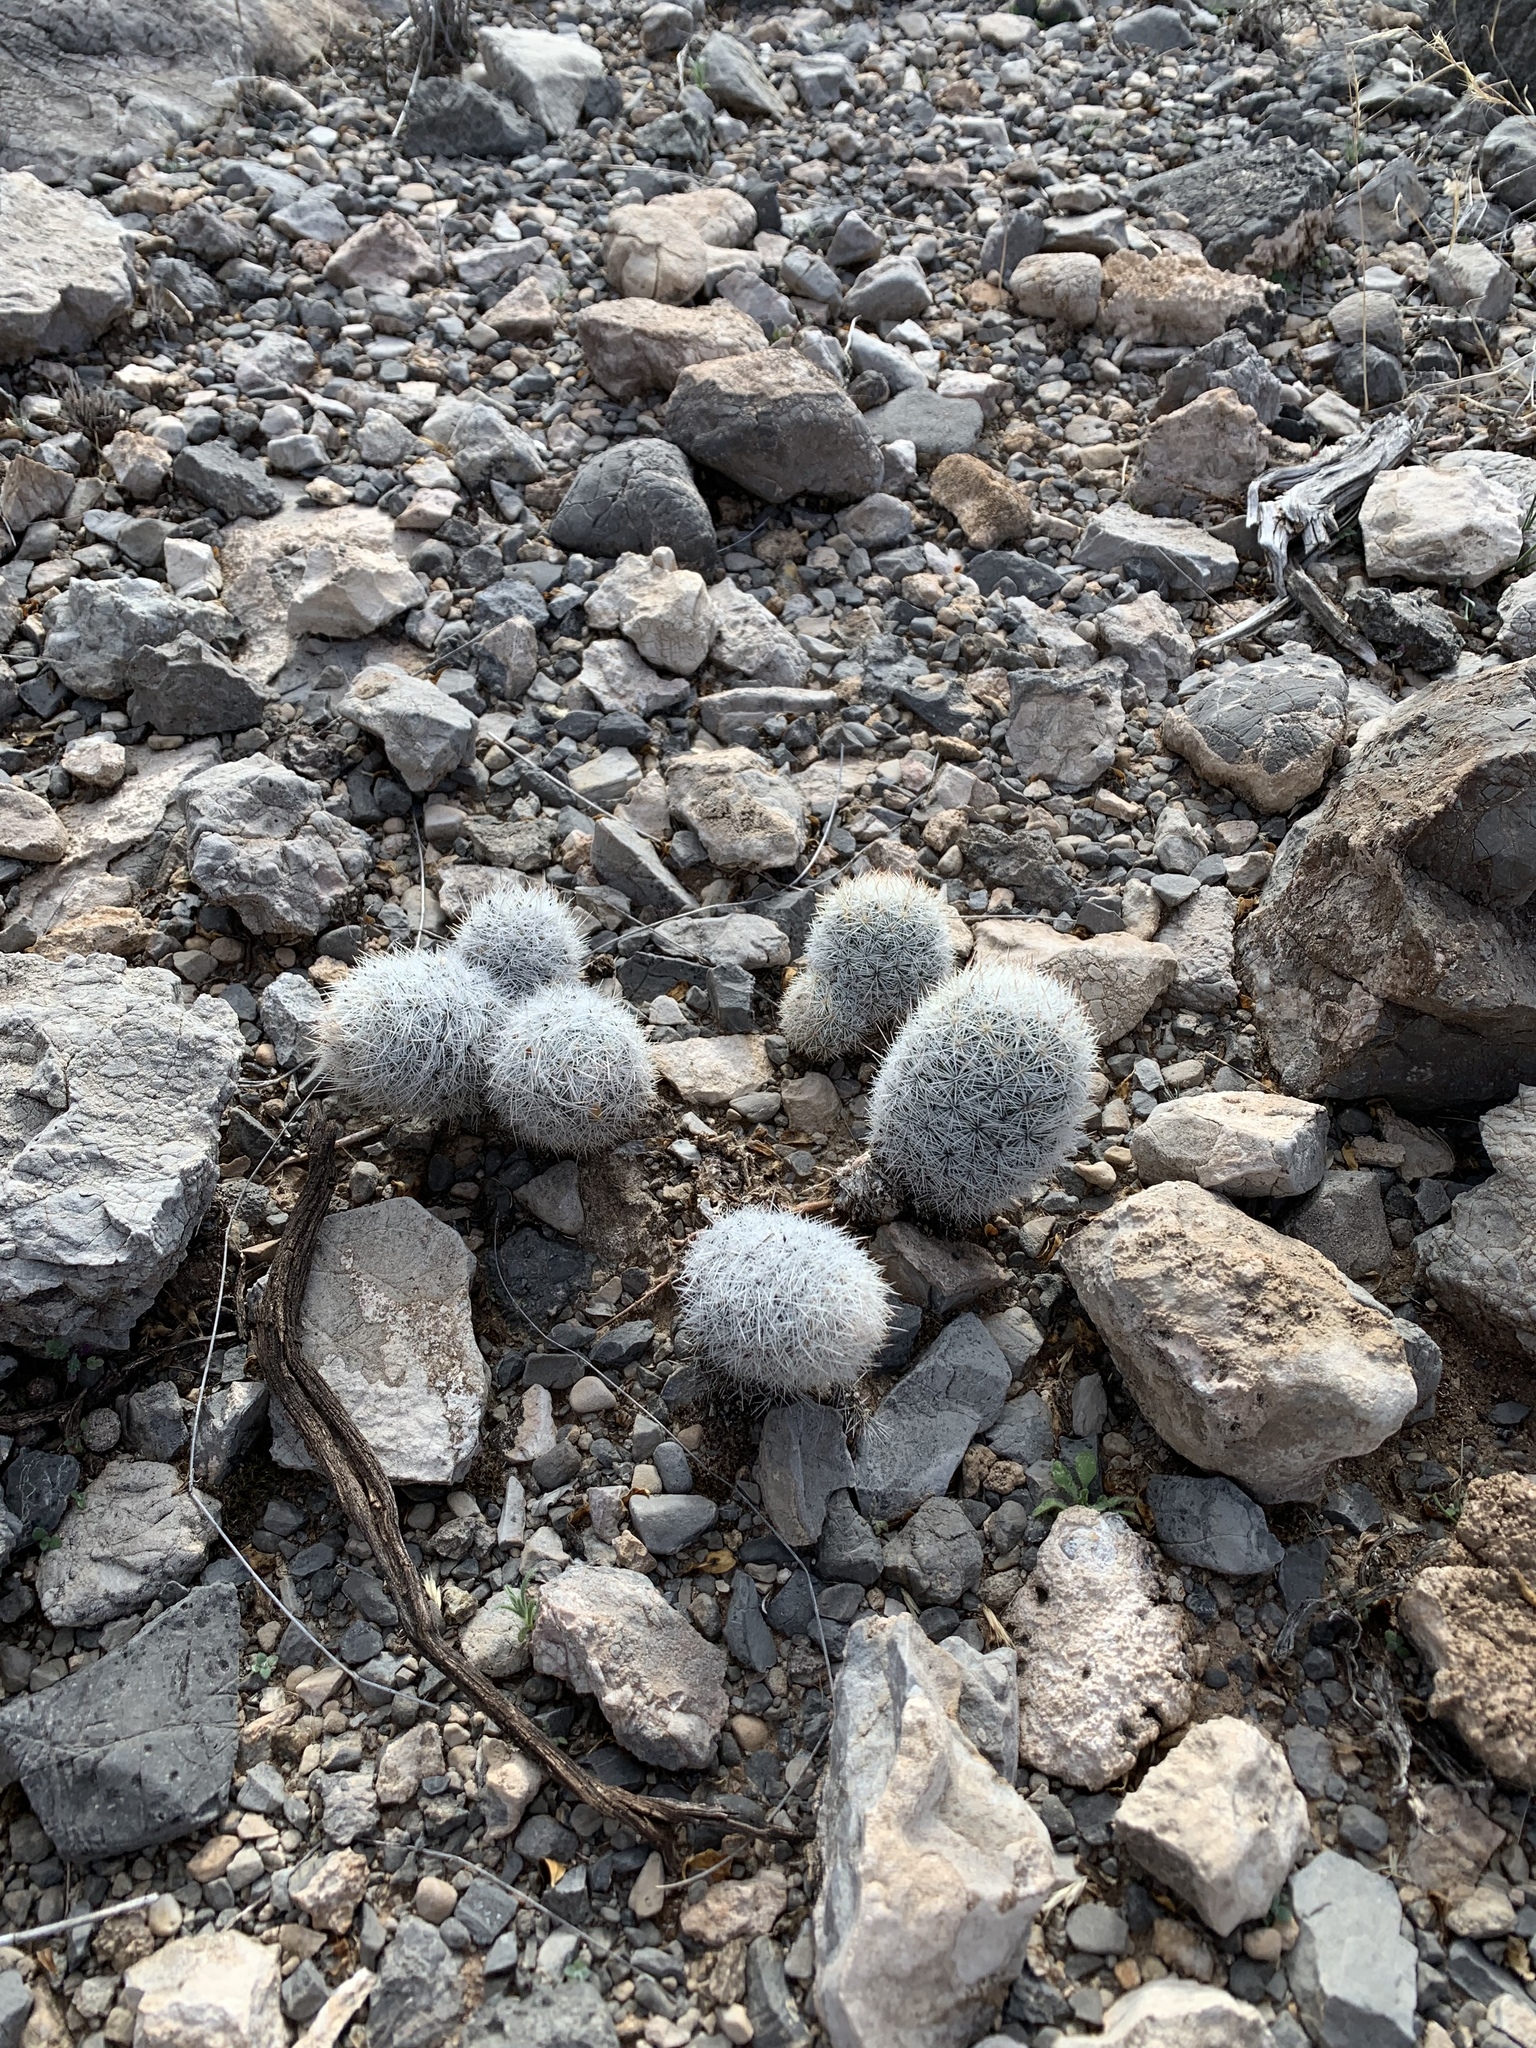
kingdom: Plantae
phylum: Tracheophyta
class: Magnoliopsida
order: Caryophyllales
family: Cactaceae
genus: Pelecyphora
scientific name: Pelecyphora sneedii
